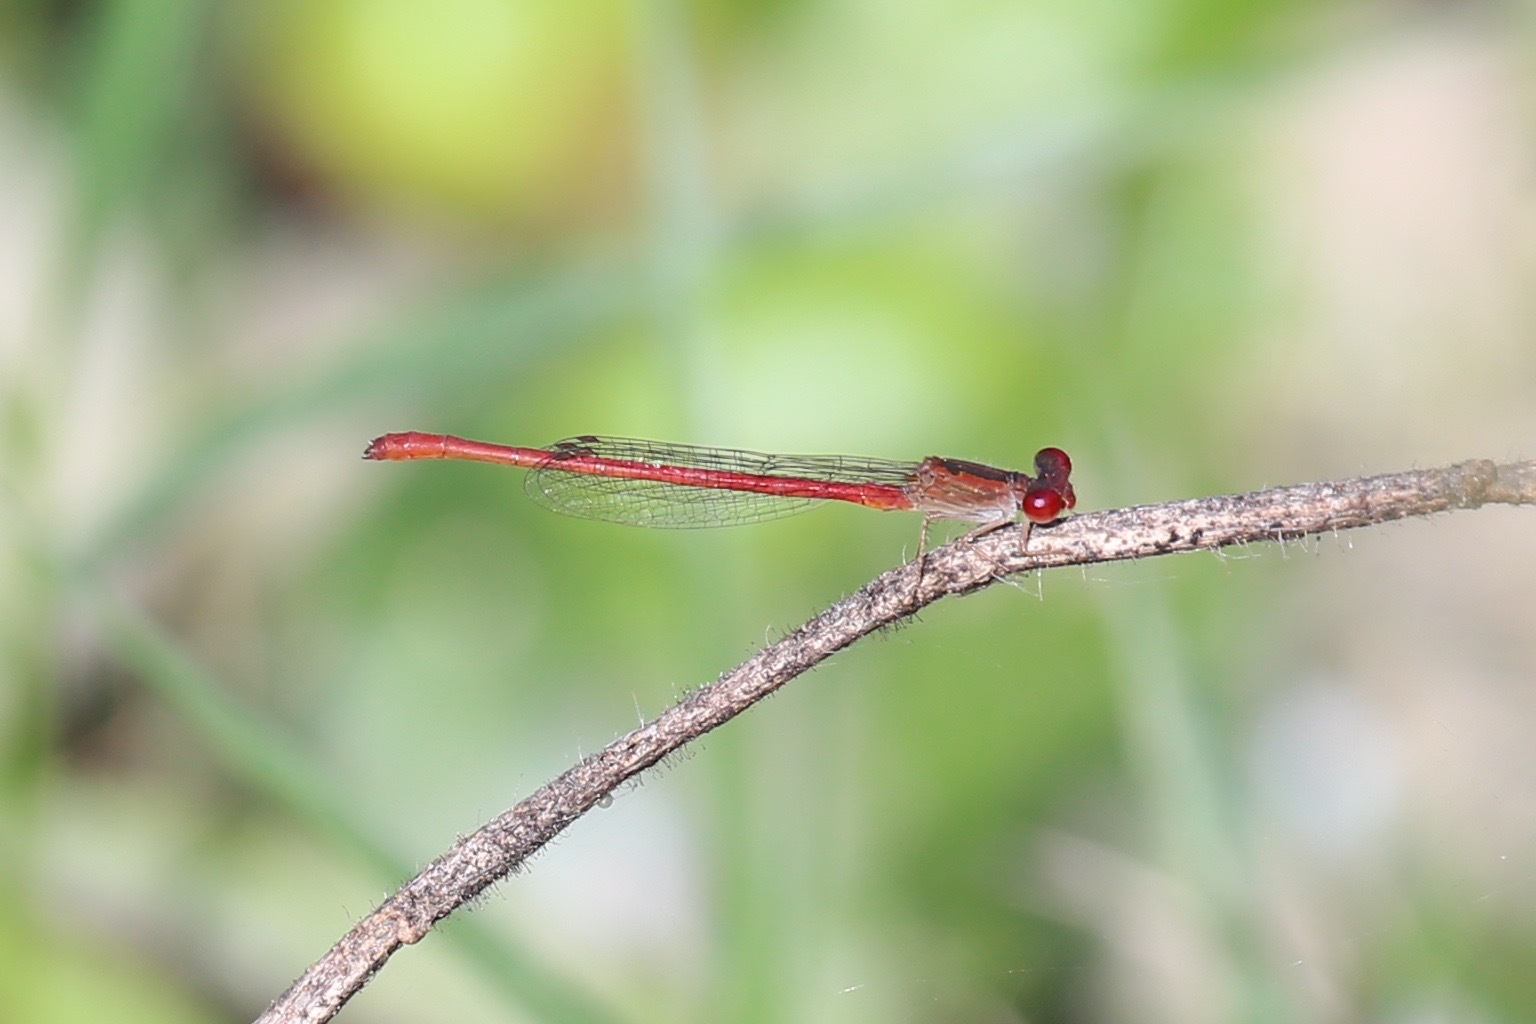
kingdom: Animalia
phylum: Arthropoda
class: Insecta
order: Odonata
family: Coenagrionidae
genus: Telebasis
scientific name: Telebasis salva
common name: Desert firetail
